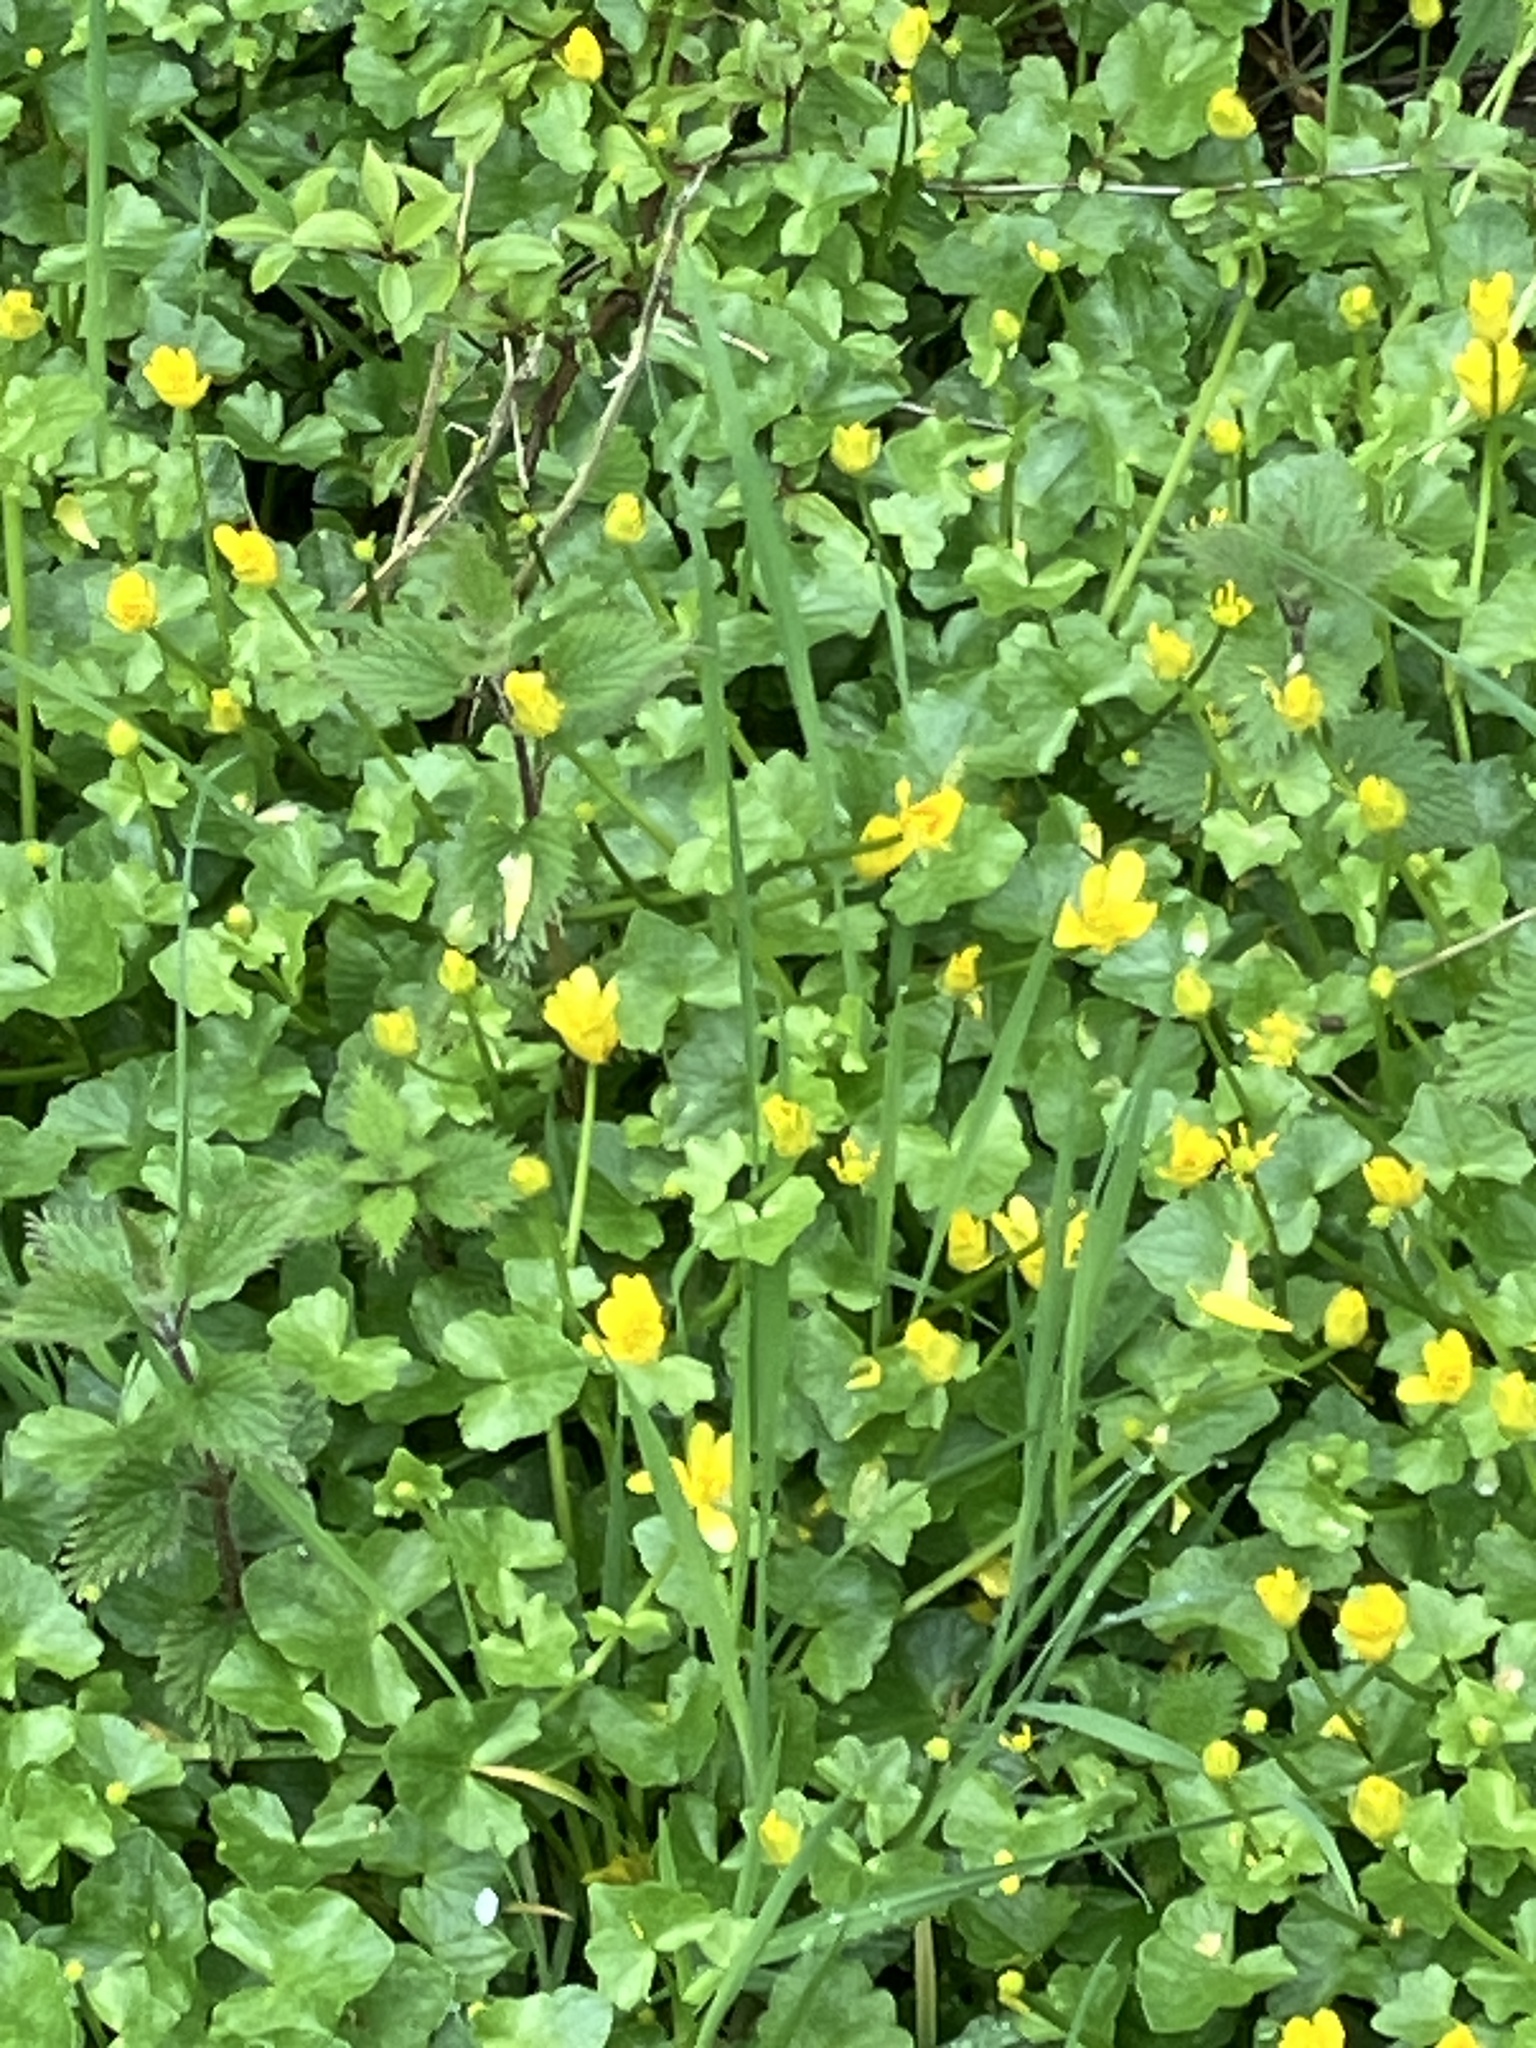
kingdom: Plantae
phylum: Tracheophyta
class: Magnoliopsida
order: Ranunculales
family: Ranunculaceae
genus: Ficaria
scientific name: Ficaria verna
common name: Lesser celandine
